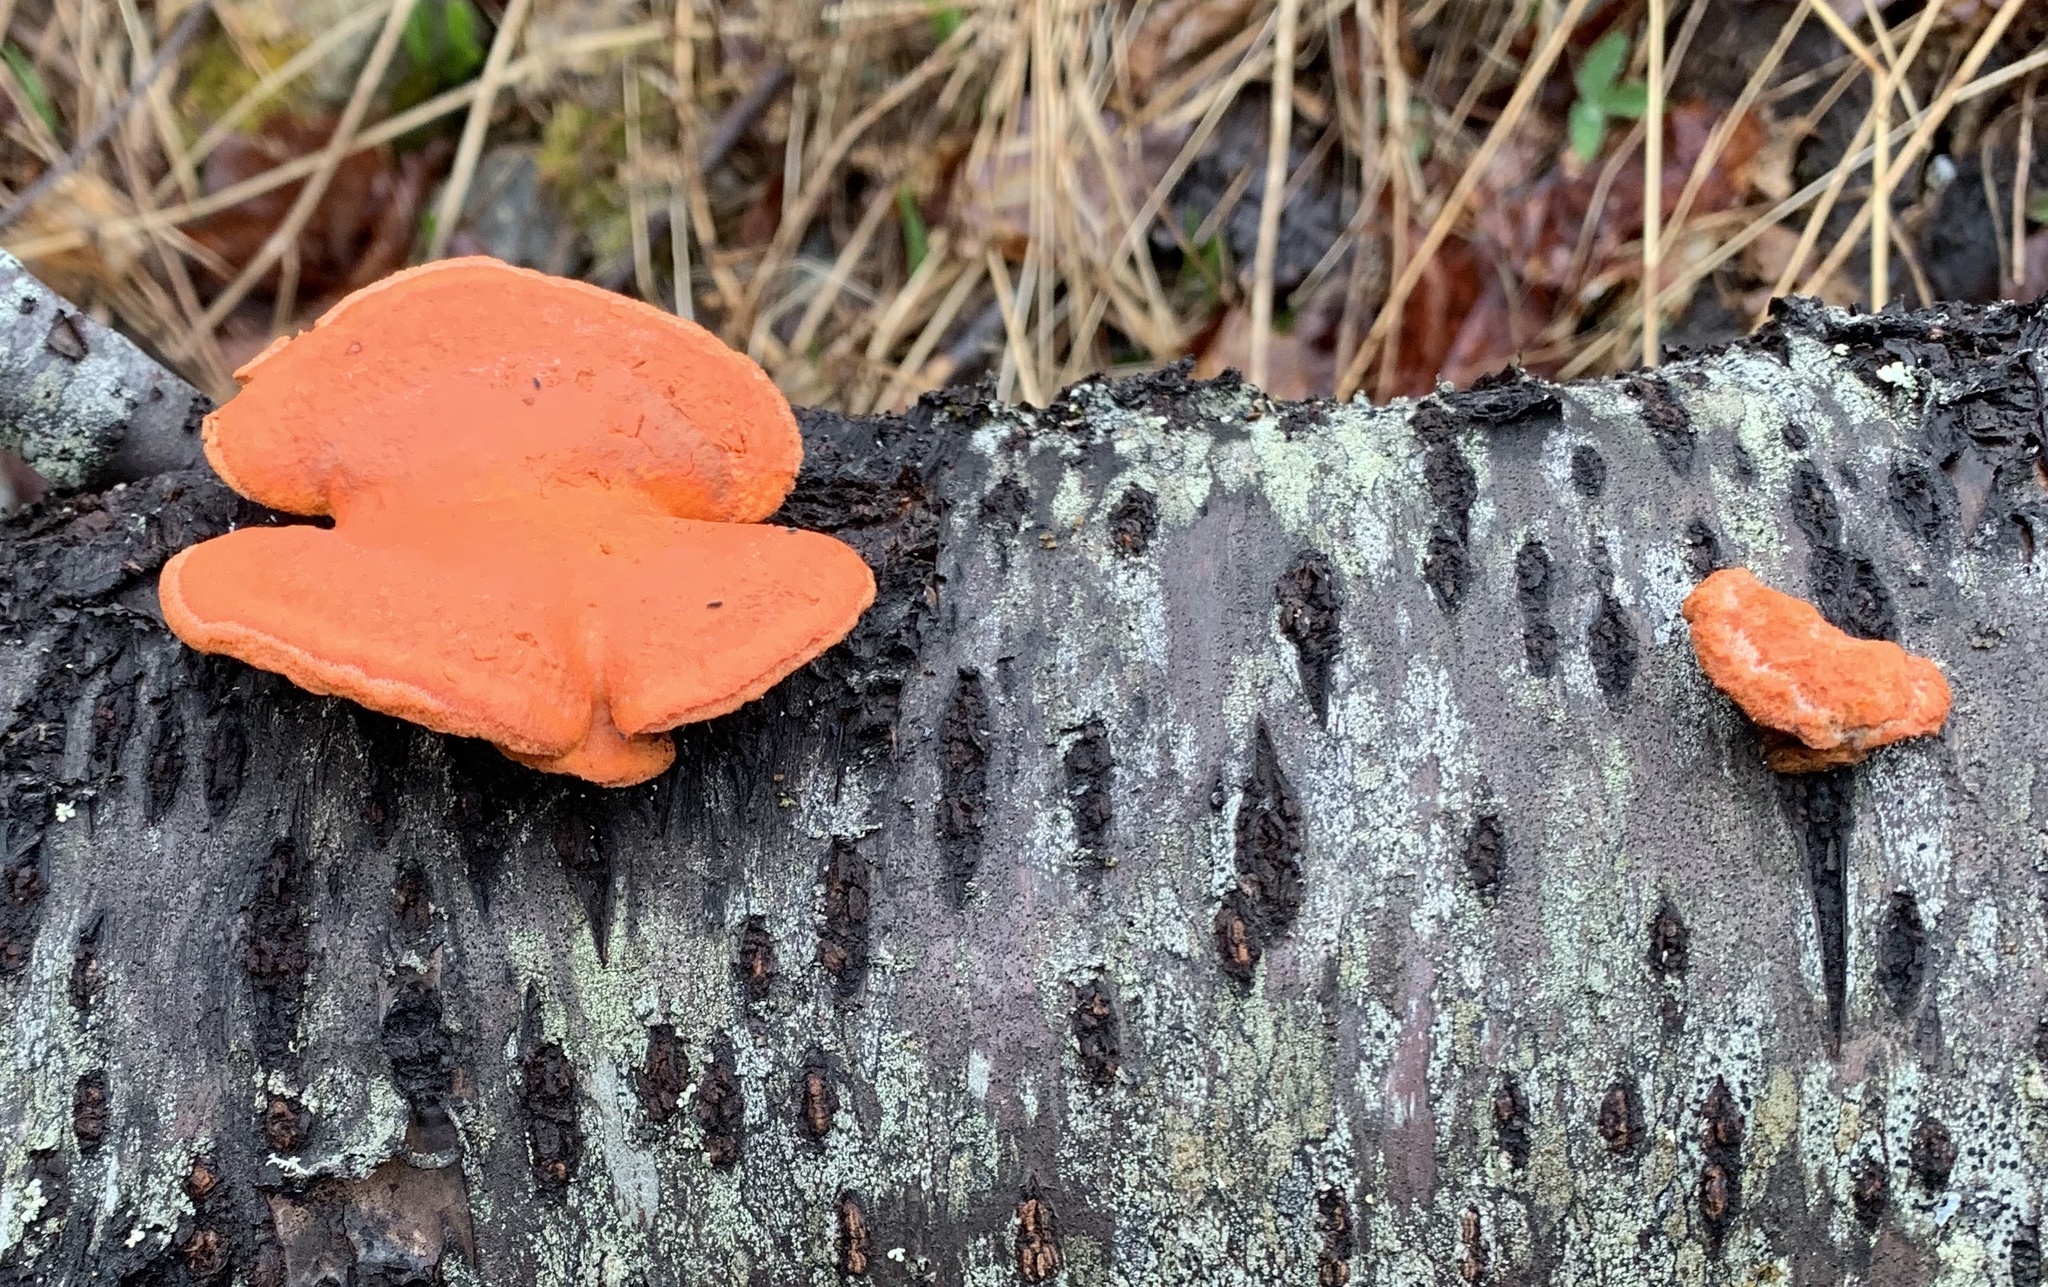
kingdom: Fungi
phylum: Basidiomycota
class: Agaricomycetes
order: Polyporales
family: Polyporaceae
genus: Trametes
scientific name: Trametes cinnabarina
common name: Northern cinnabar polypore
